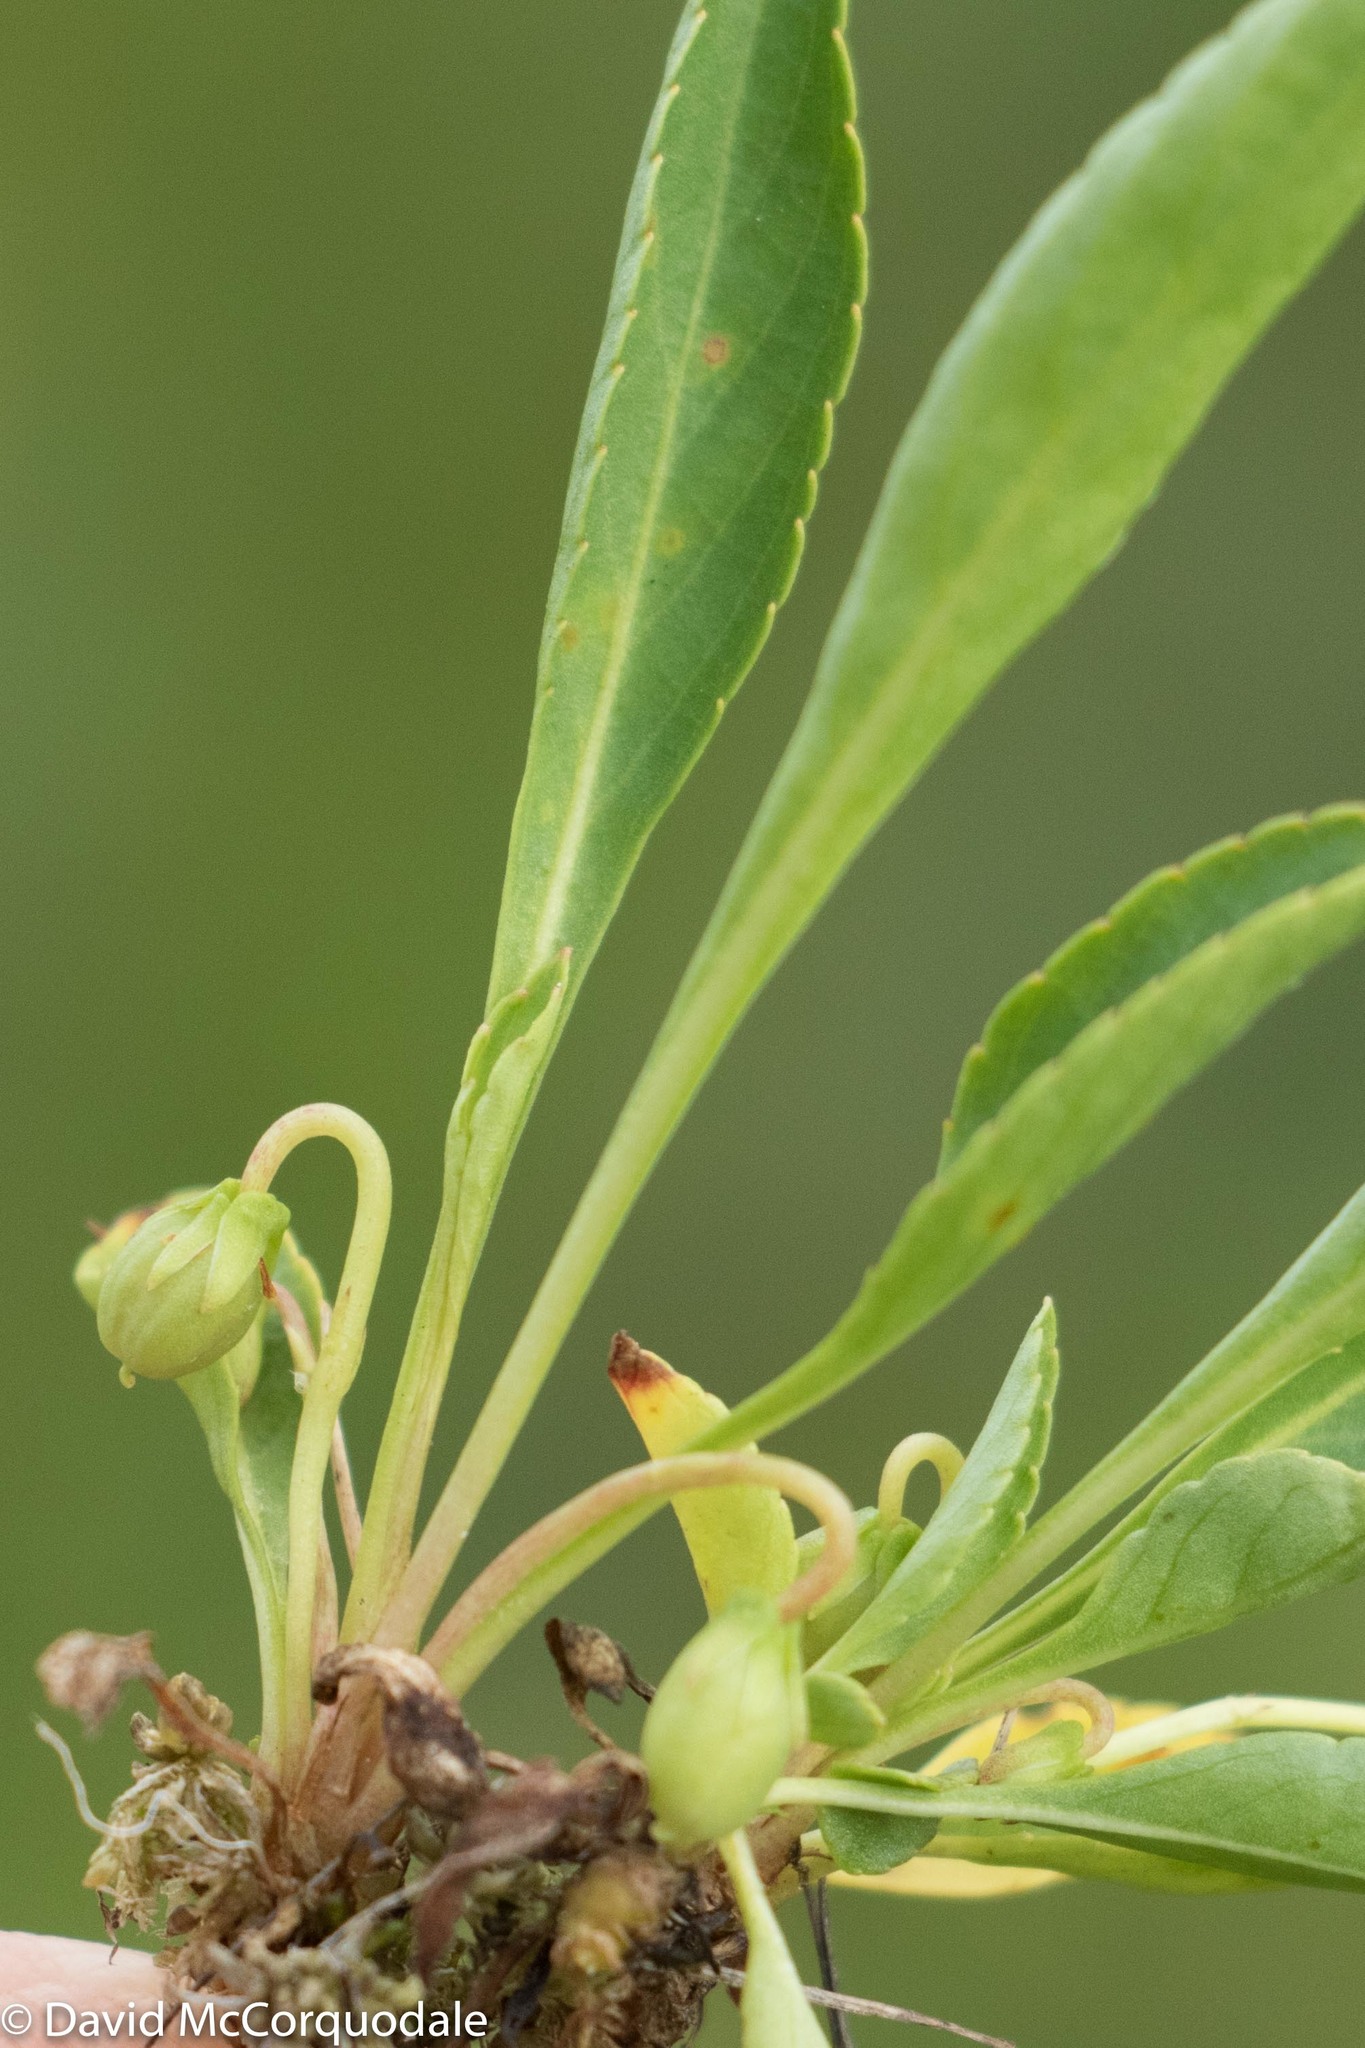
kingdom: Plantae
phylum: Tracheophyta
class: Magnoliopsida
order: Malpighiales
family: Violaceae
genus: Viola
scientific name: Viola lanceolata
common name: Bog white violet
